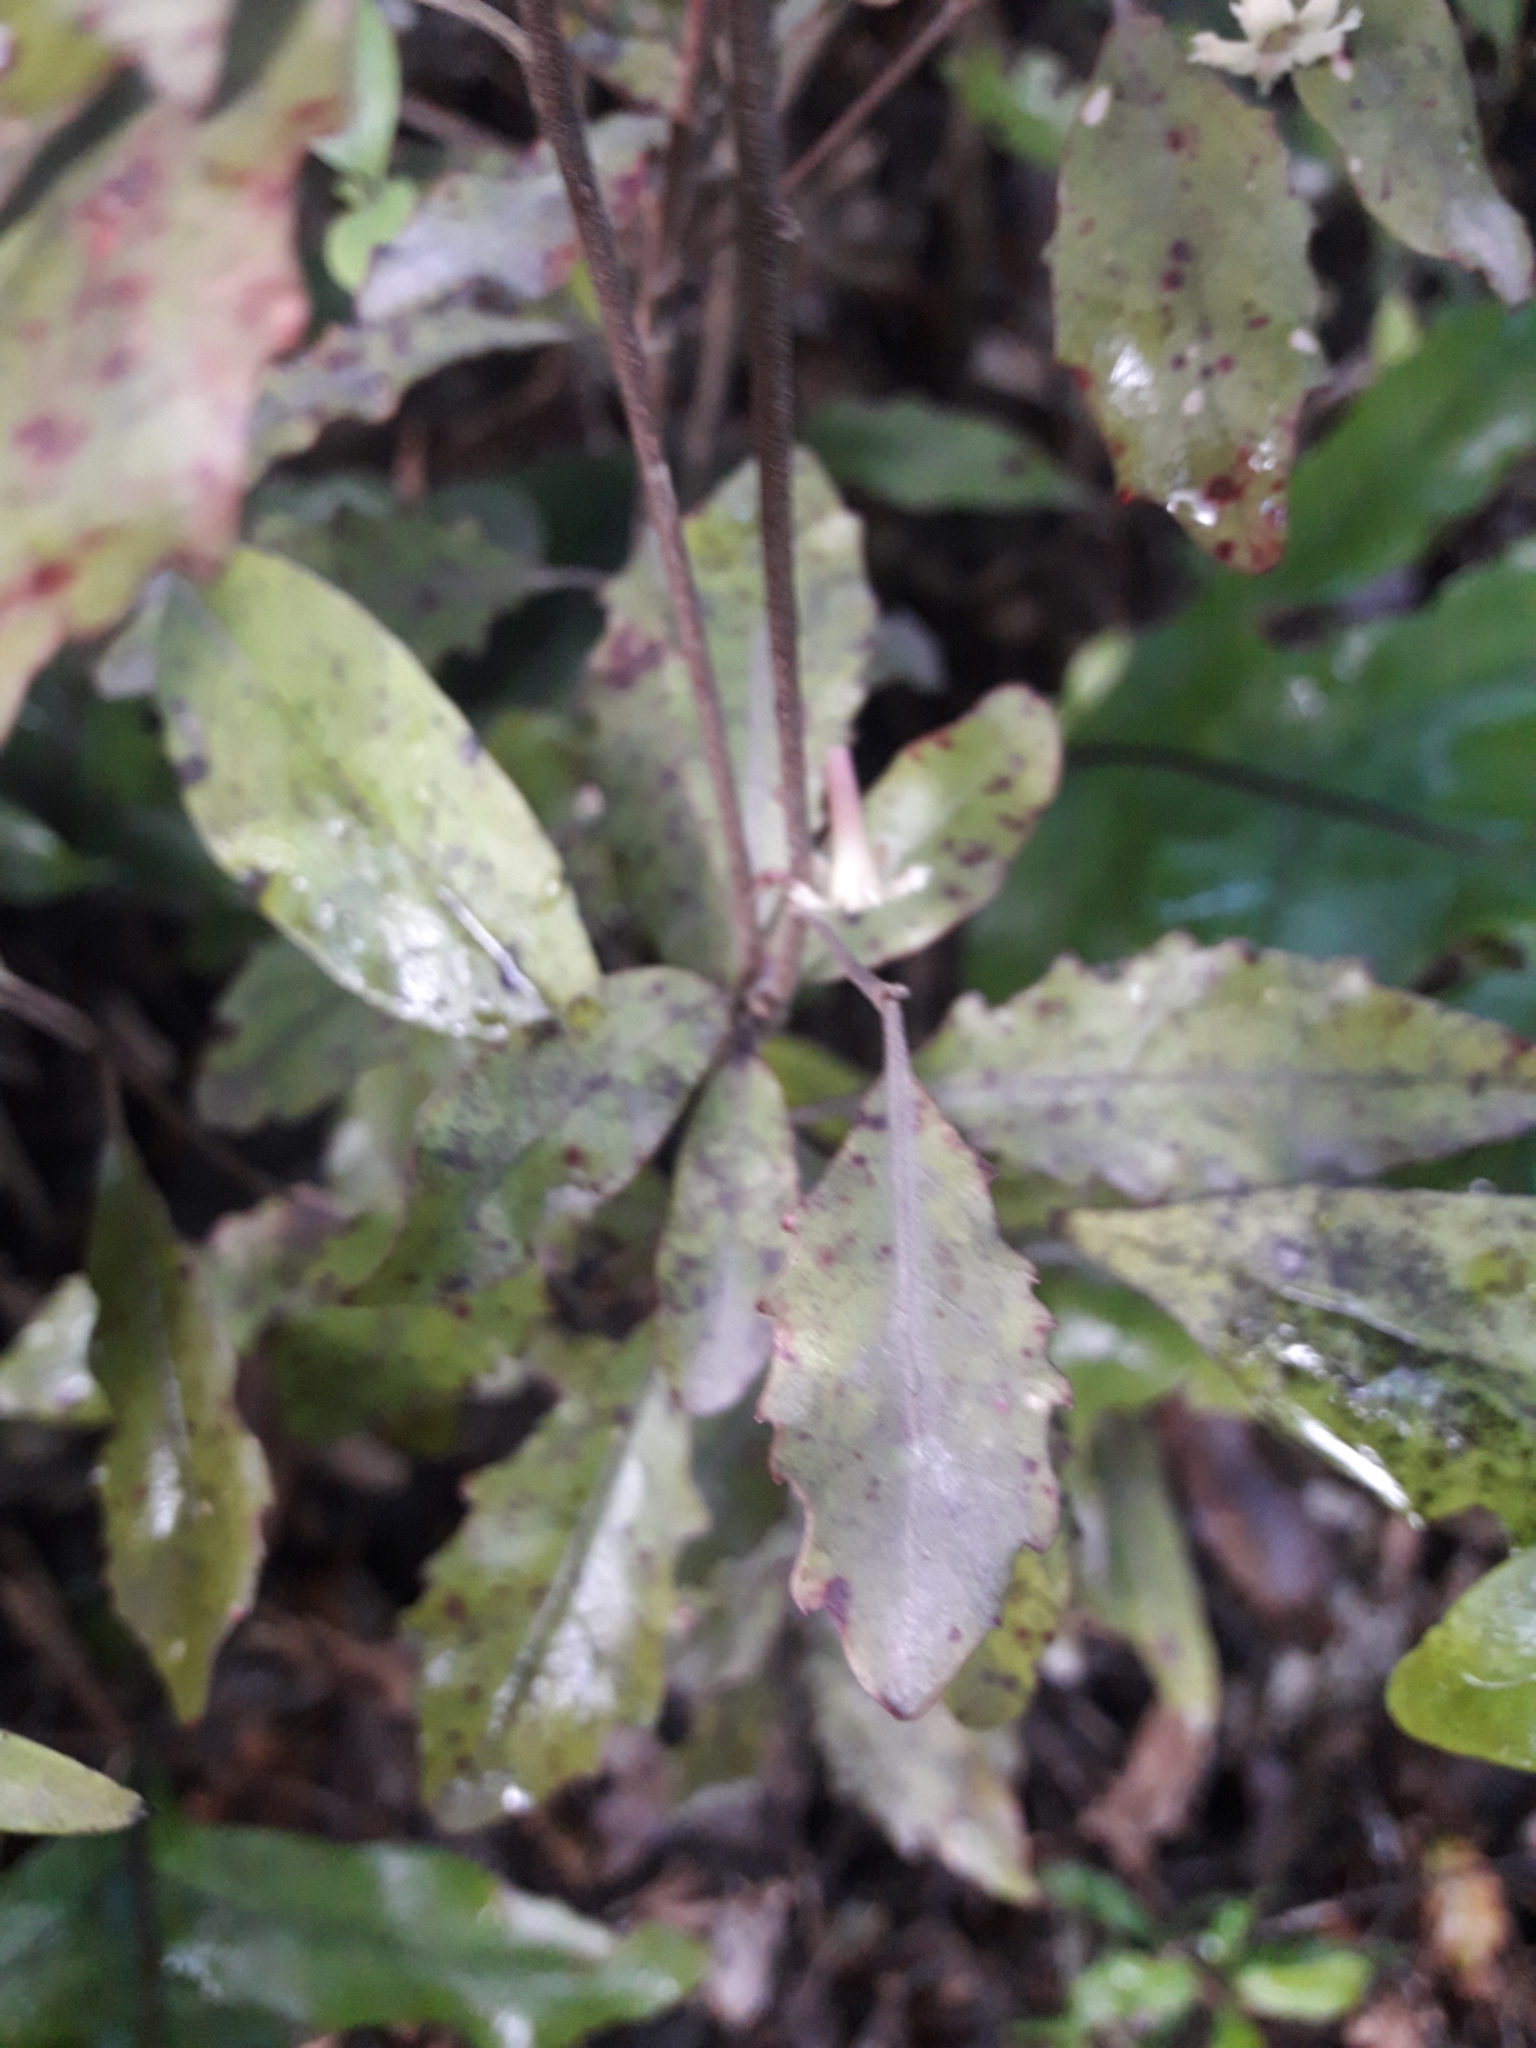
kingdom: Plantae
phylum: Tracheophyta
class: Magnoliopsida
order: Asterales
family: Alseuosmiaceae
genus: Alseuosmia
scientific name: Alseuosmia banksii
